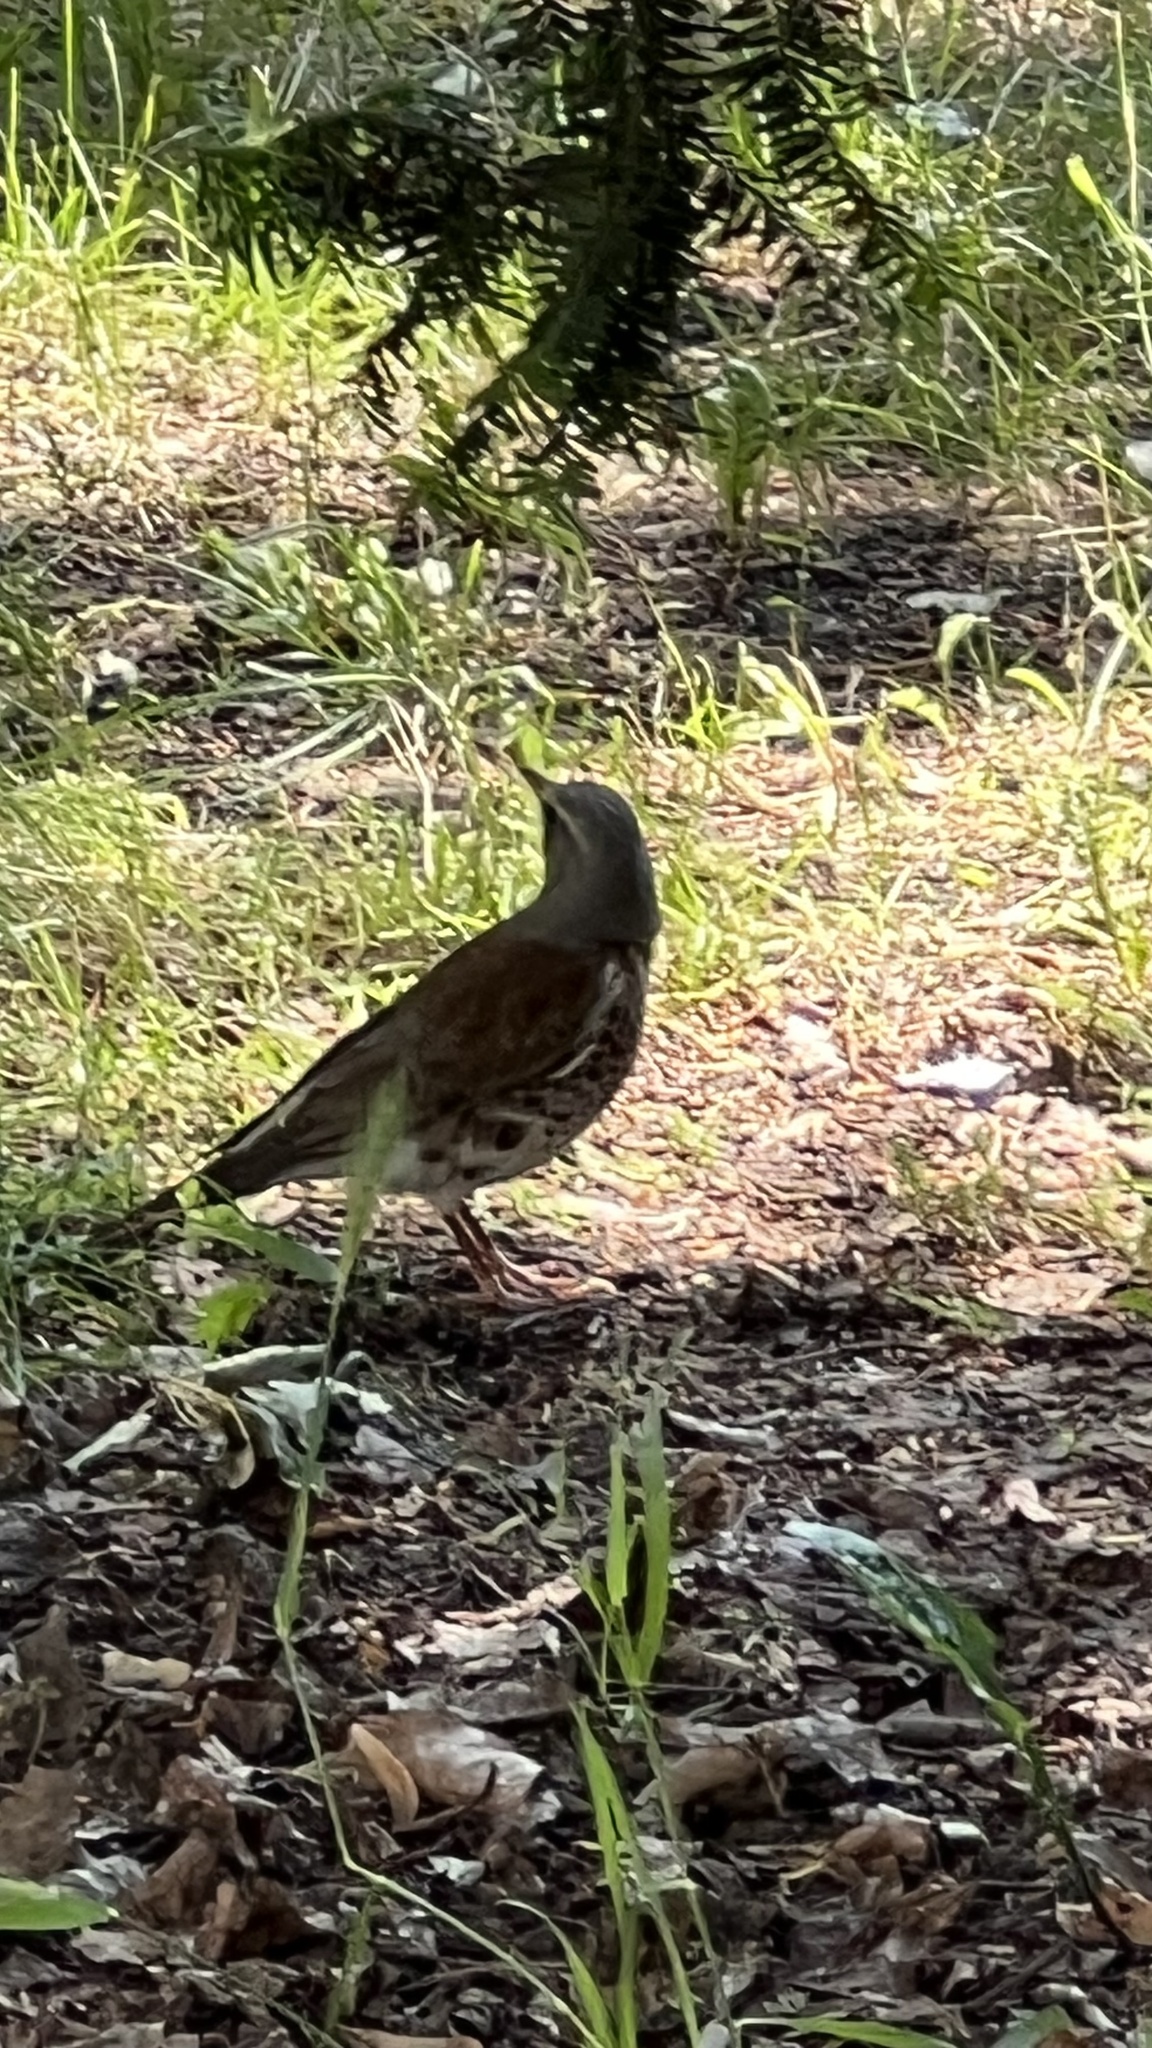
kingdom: Animalia
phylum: Chordata
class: Aves
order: Passeriformes
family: Turdidae
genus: Turdus
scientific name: Turdus pilaris
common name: Fieldfare
